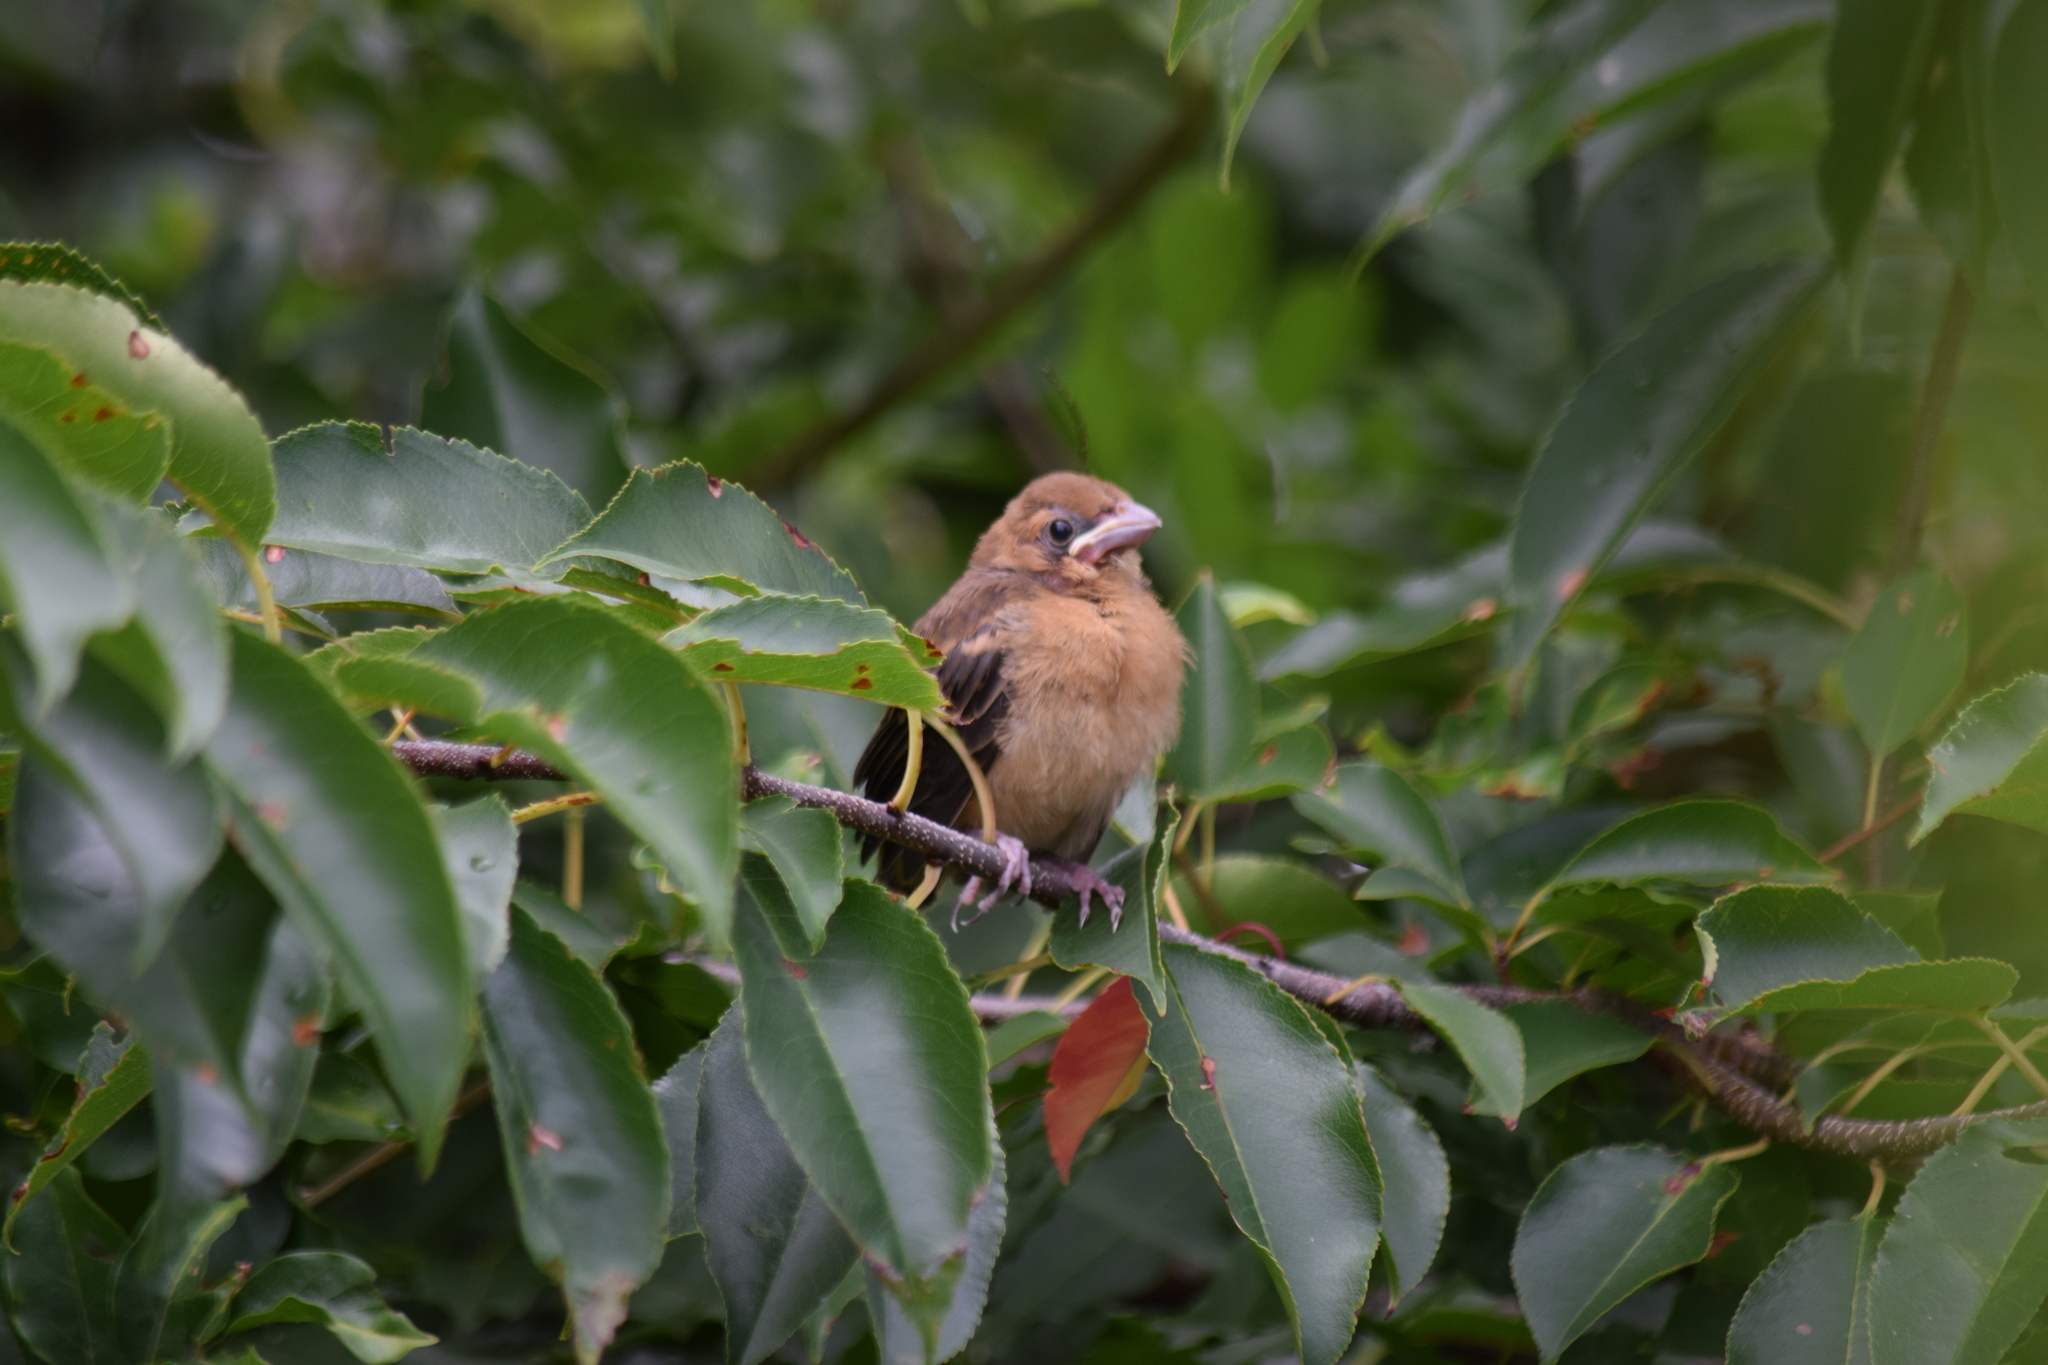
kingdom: Animalia
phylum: Chordata
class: Aves
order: Passeriformes
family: Cardinalidae
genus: Passerina
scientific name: Passerina caerulea
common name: Blue grosbeak
